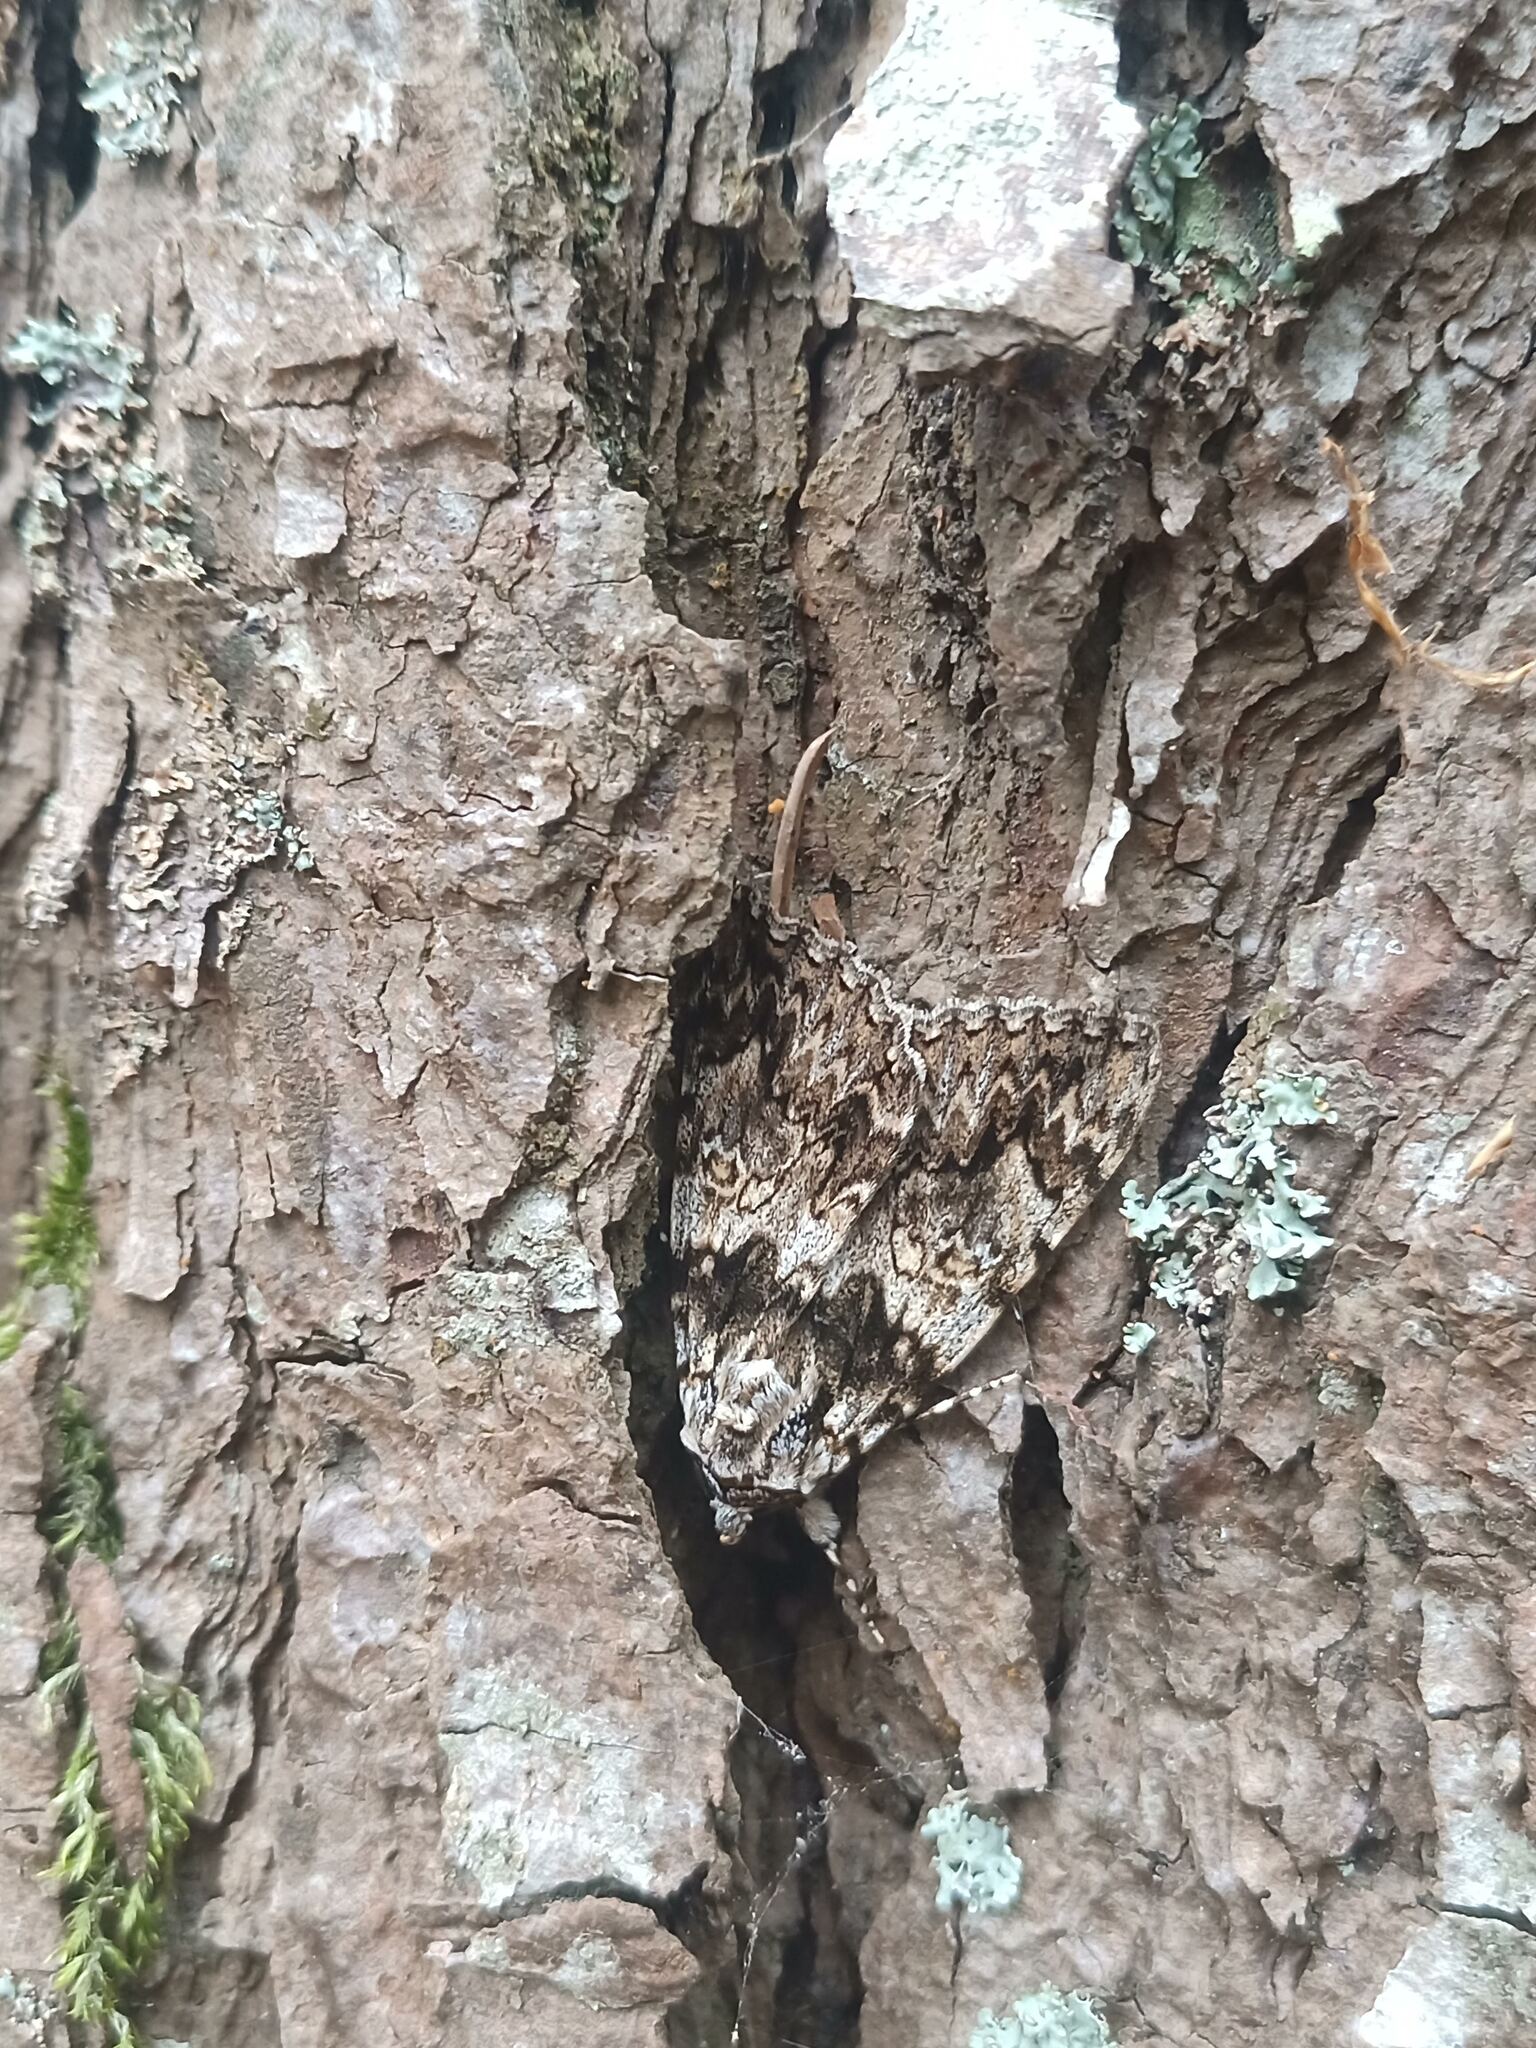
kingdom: Animalia
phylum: Arthropoda
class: Insecta
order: Lepidoptera
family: Erebidae
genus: Catocala
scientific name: Catocala promissa
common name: Light crimson underwing
